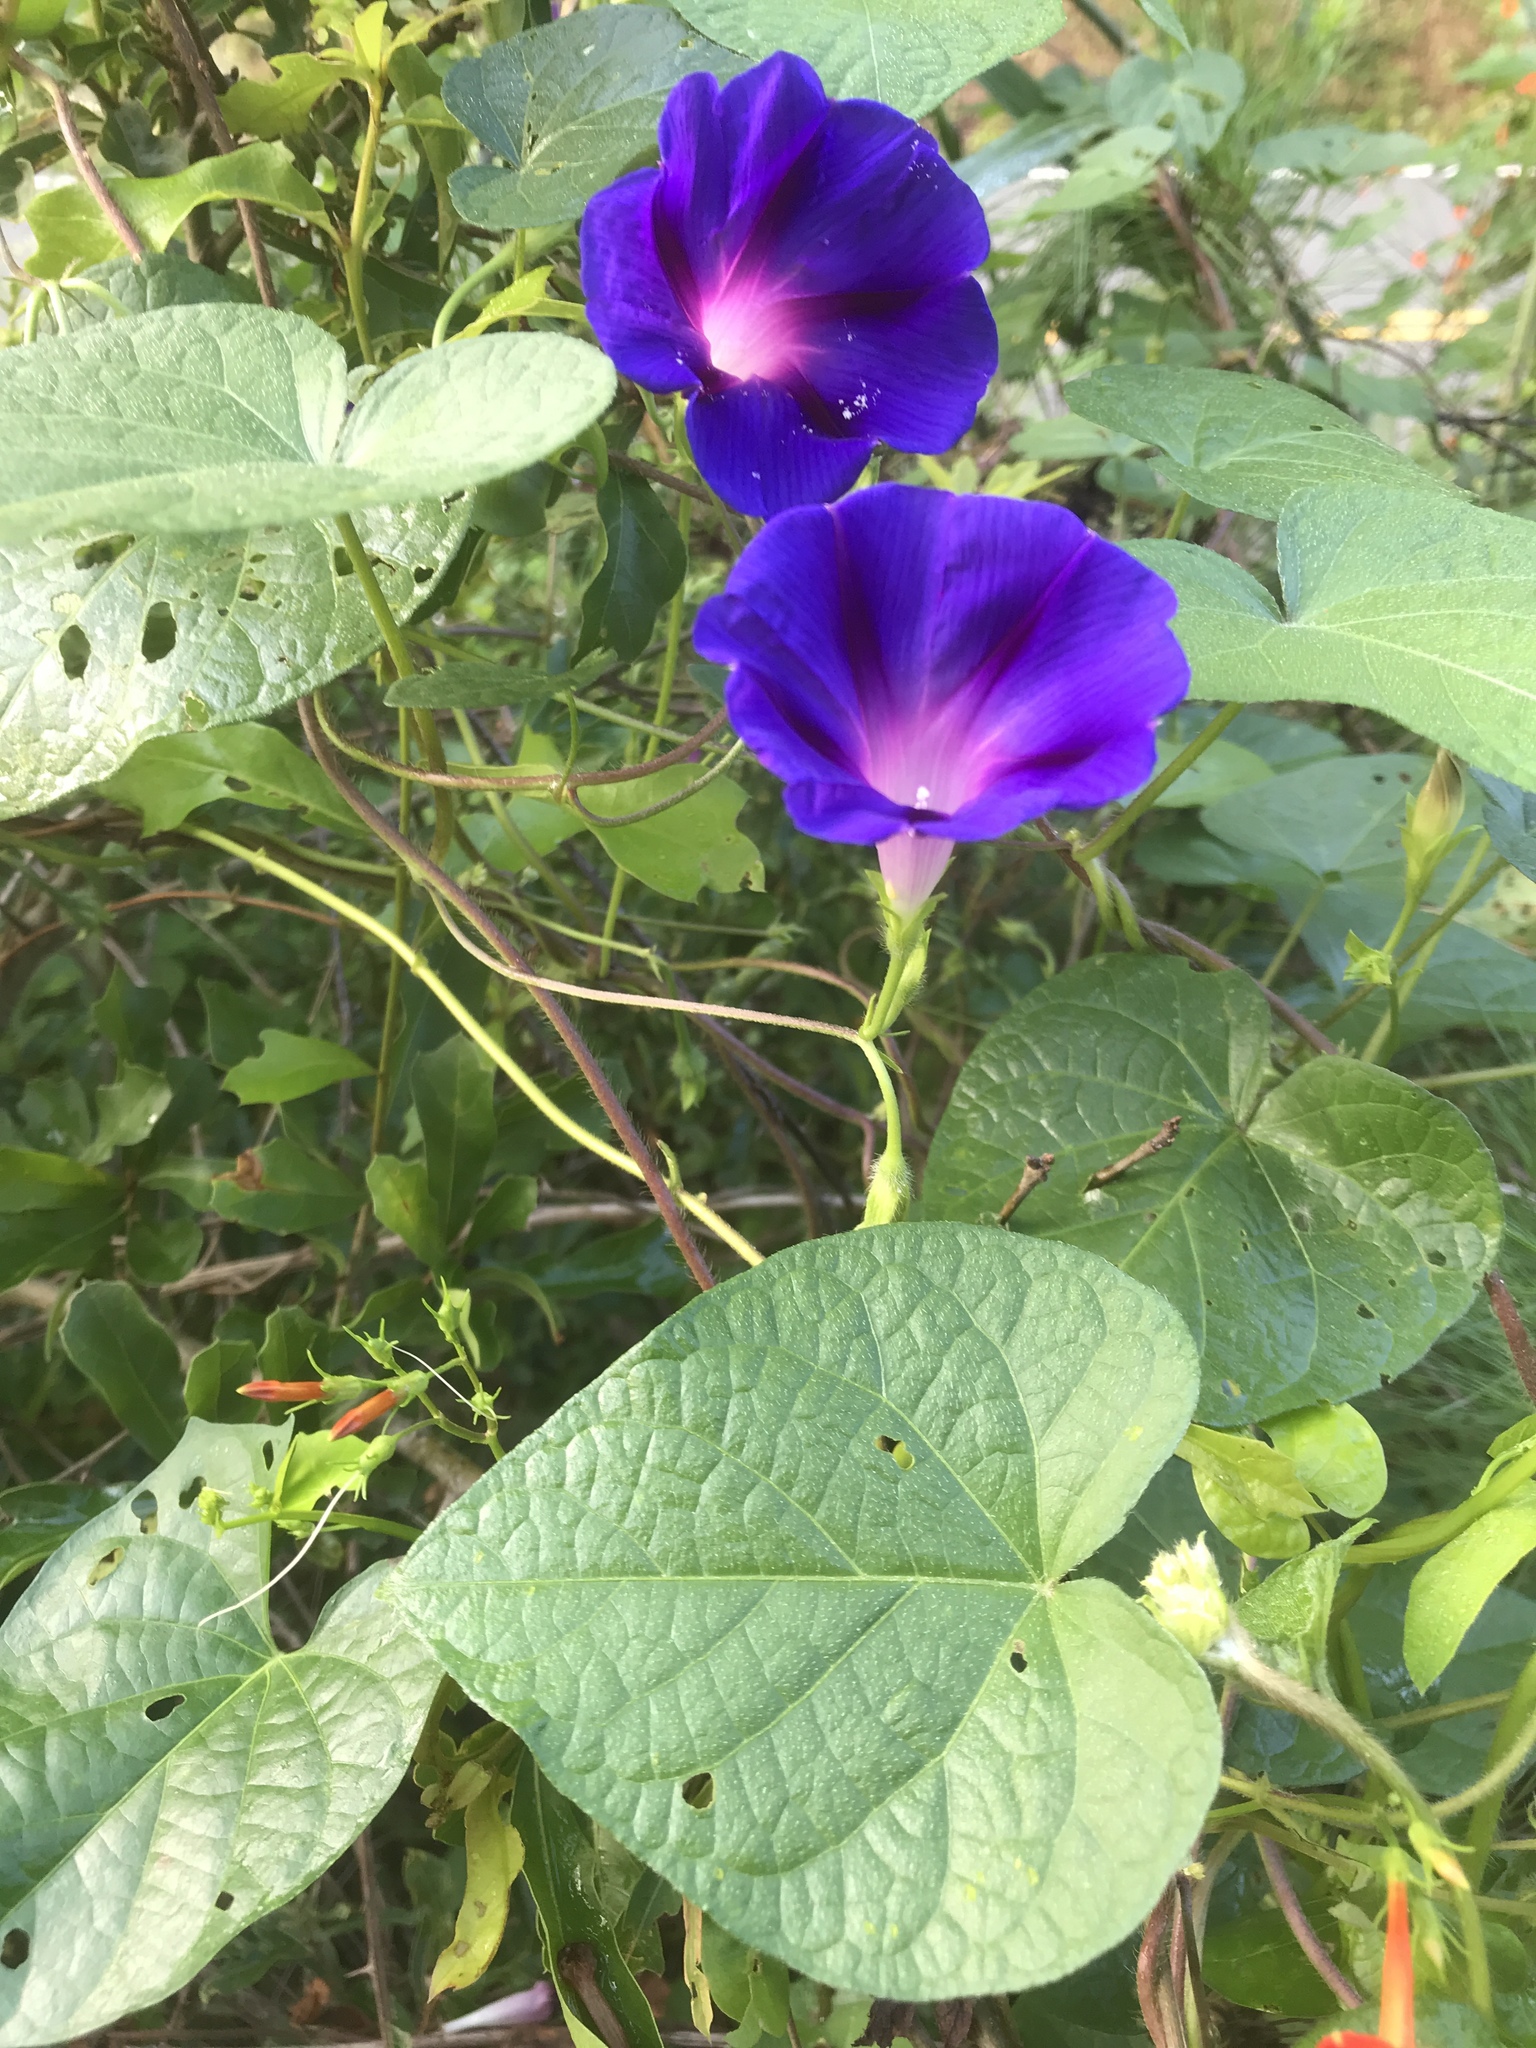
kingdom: Plantae
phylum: Tracheophyta
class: Magnoliopsida
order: Solanales
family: Convolvulaceae
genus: Ipomoea
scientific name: Ipomoea purpurea
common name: Common morning-glory
